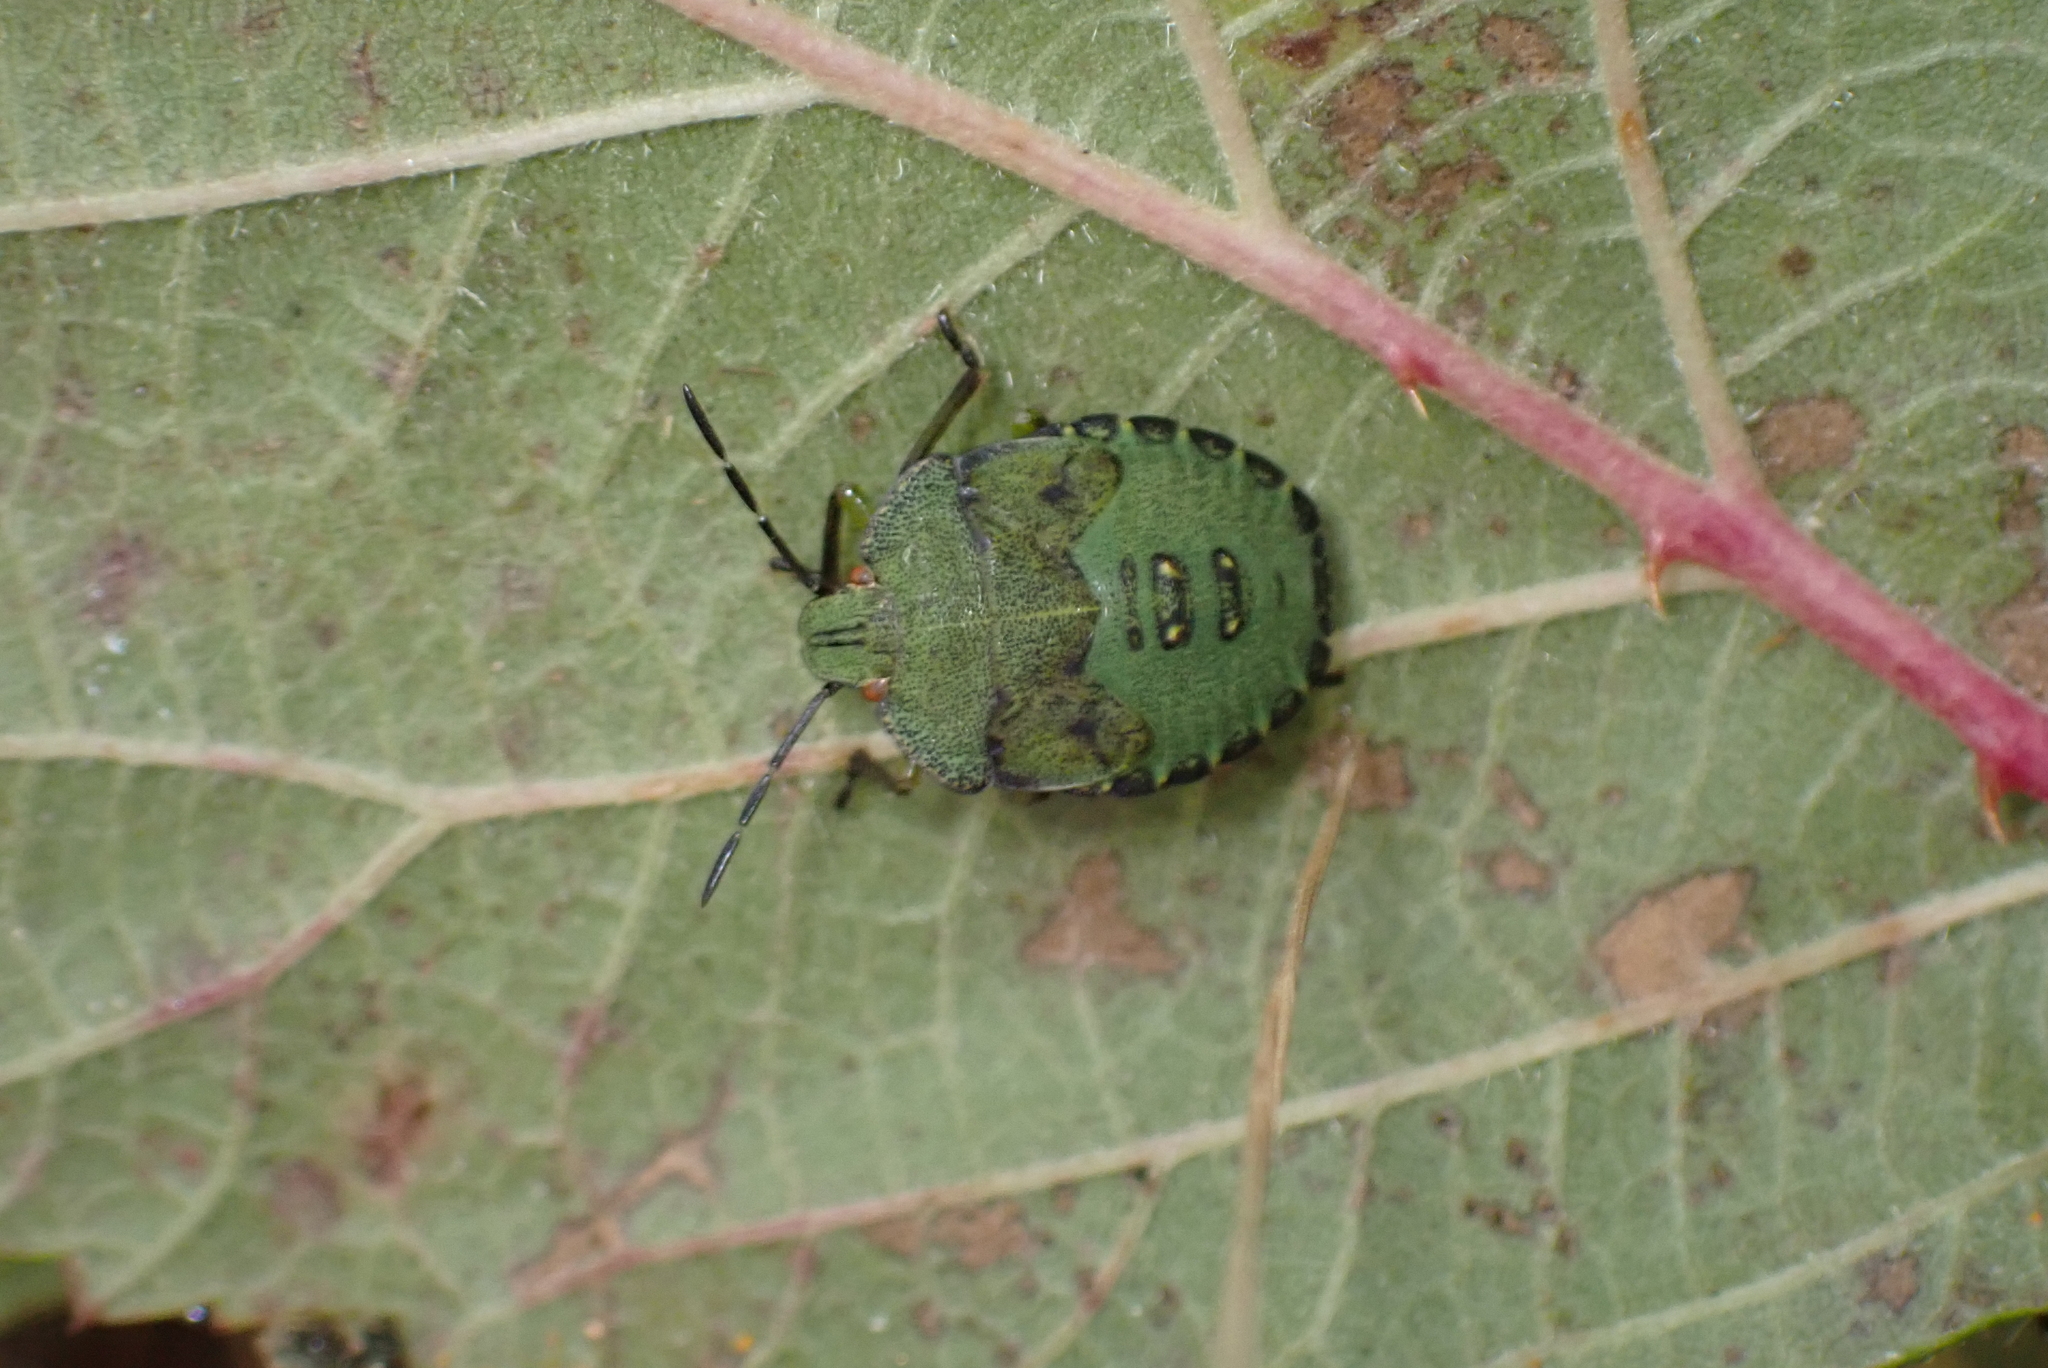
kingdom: Animalia
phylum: Arthropoda
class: Insecta
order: Hemiptera
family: Pentatomidae
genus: Palomena
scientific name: Palomena prasina
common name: Green shieldbug
